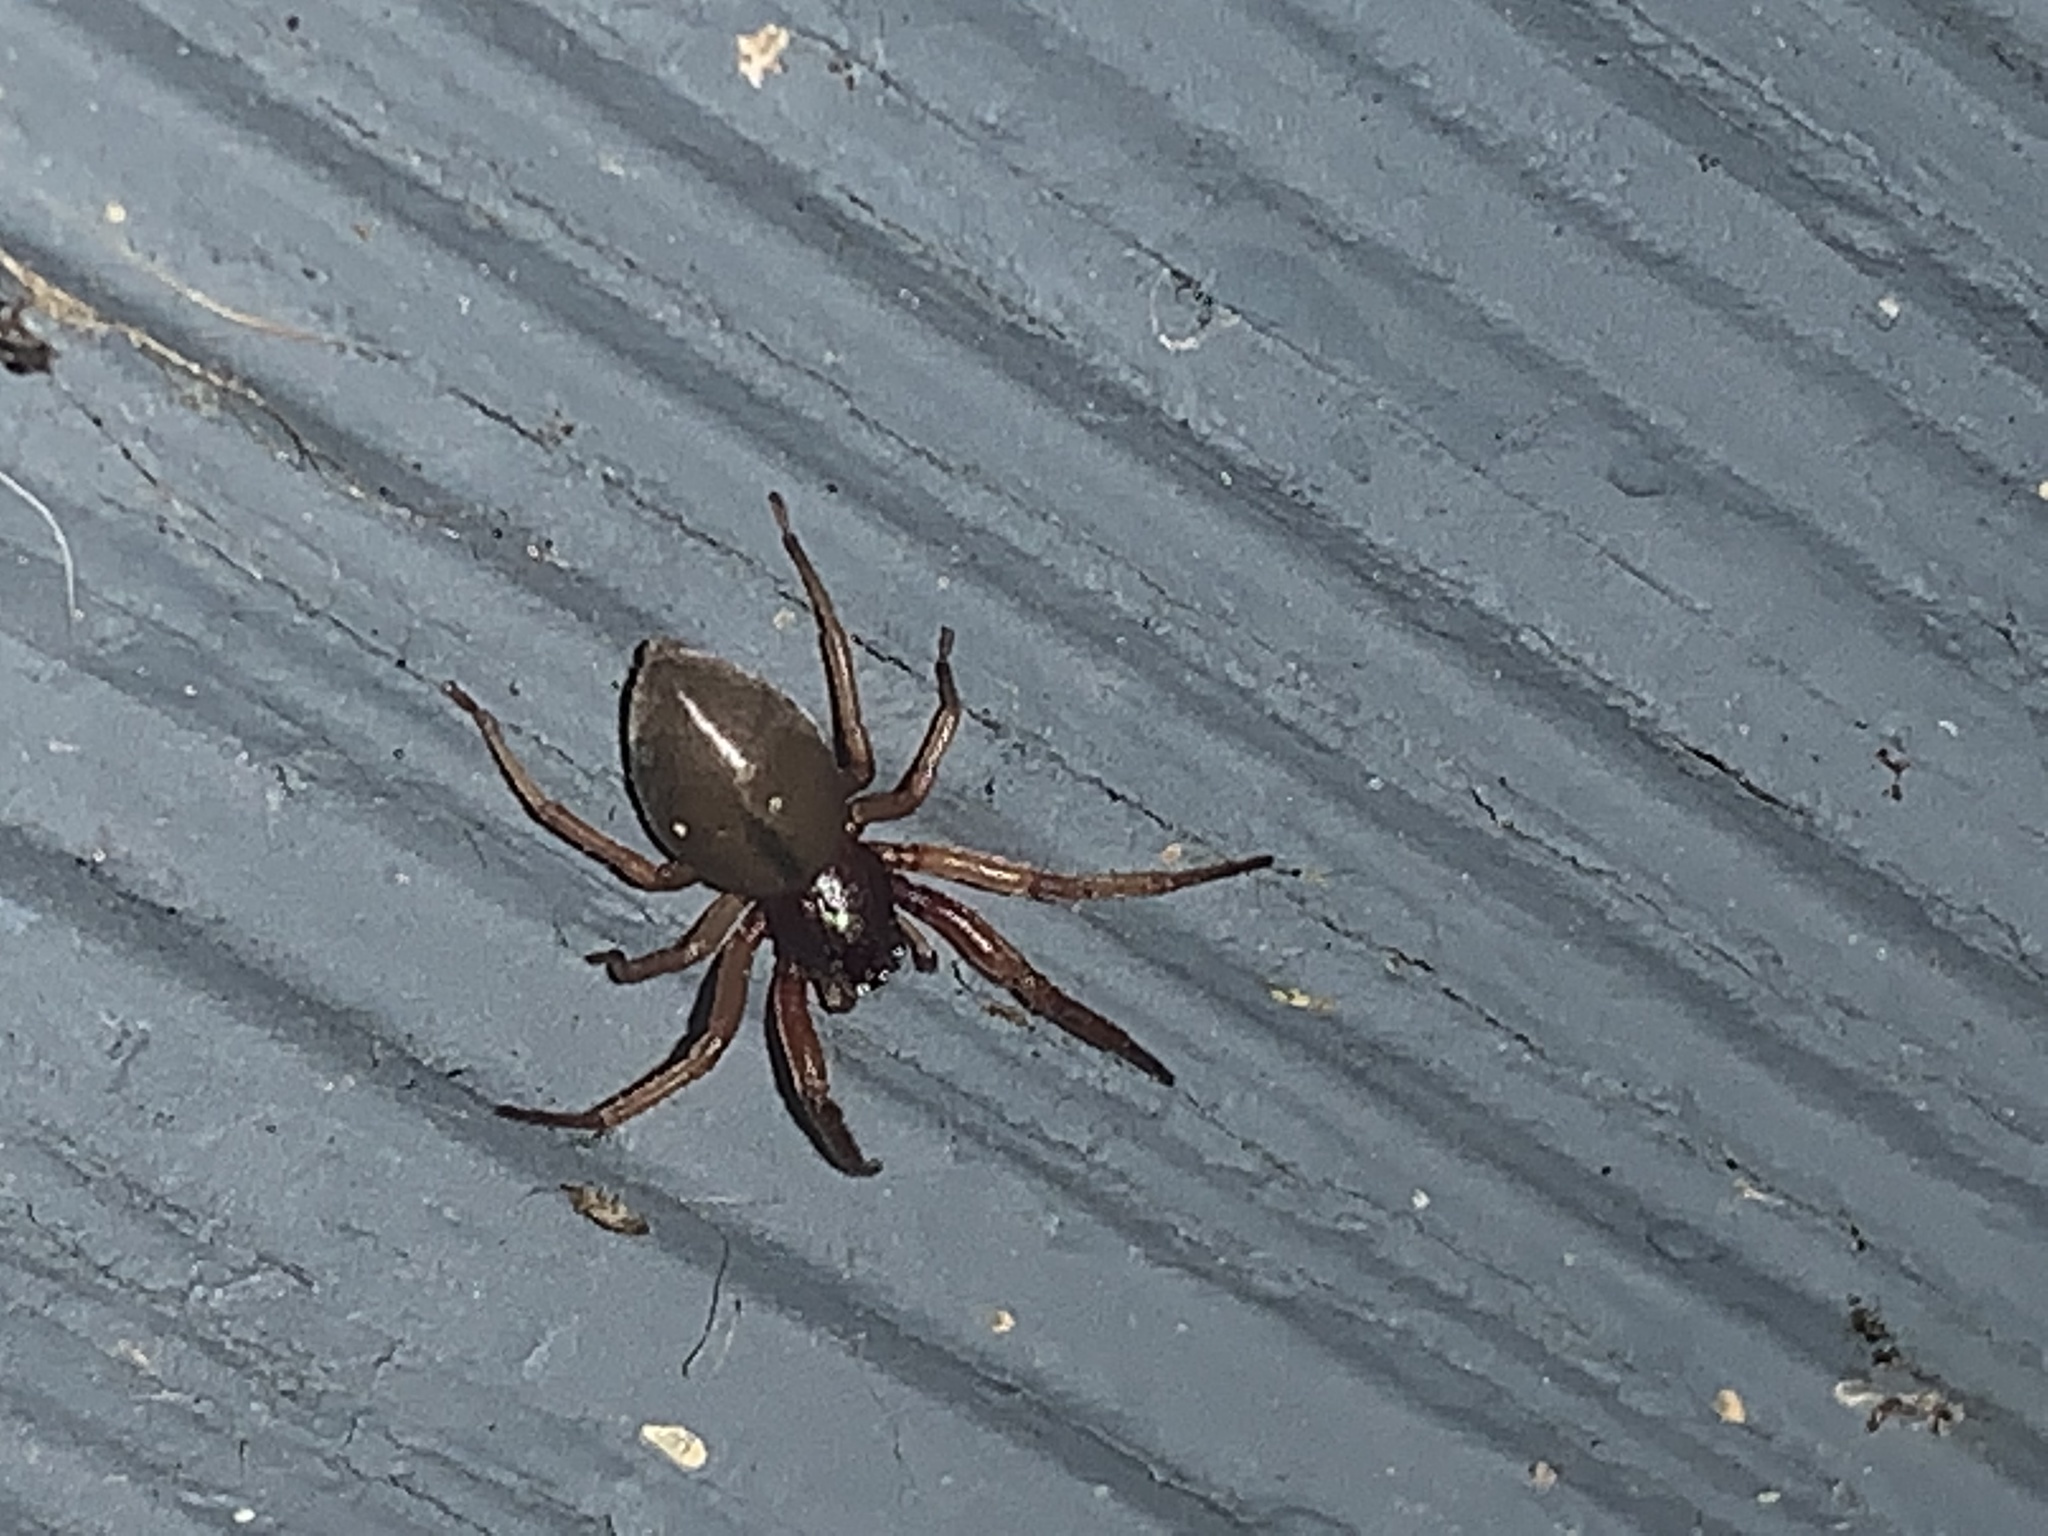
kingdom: Animalia
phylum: Arthropoda
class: Arachnida
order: Araneae
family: Trachelidae
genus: Trachelas
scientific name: Trachelas tranquillus
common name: Broad-faced sac spider
